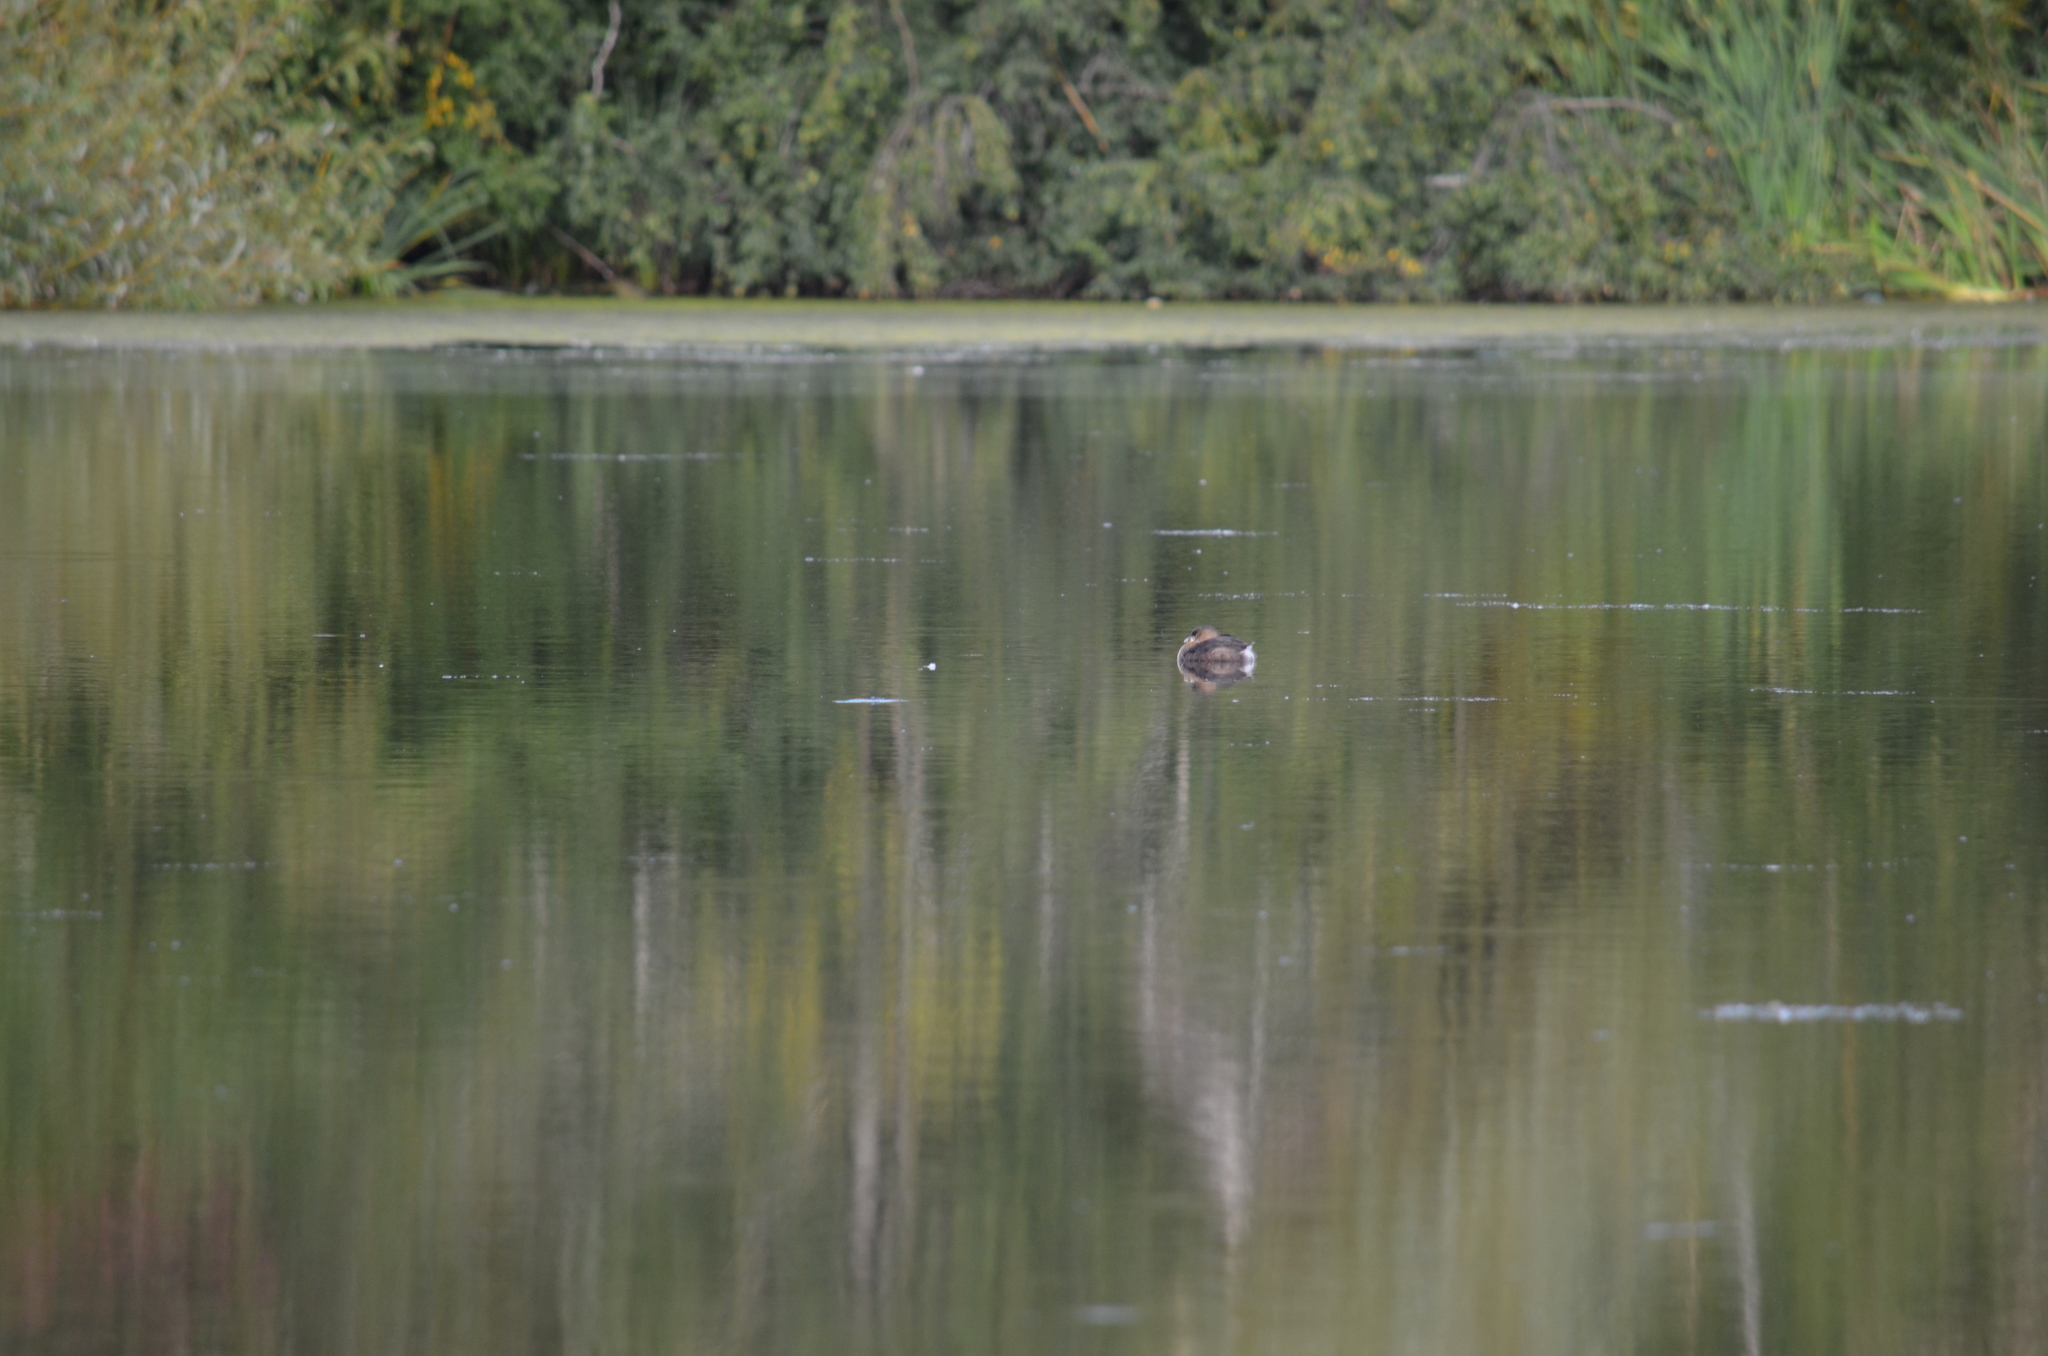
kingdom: Animalia
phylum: Chordata
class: Aves
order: Podicipediformes
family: Podicipedidae
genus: Podilymbus
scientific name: Podilymbus podiceps
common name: Pied-billed grebe
